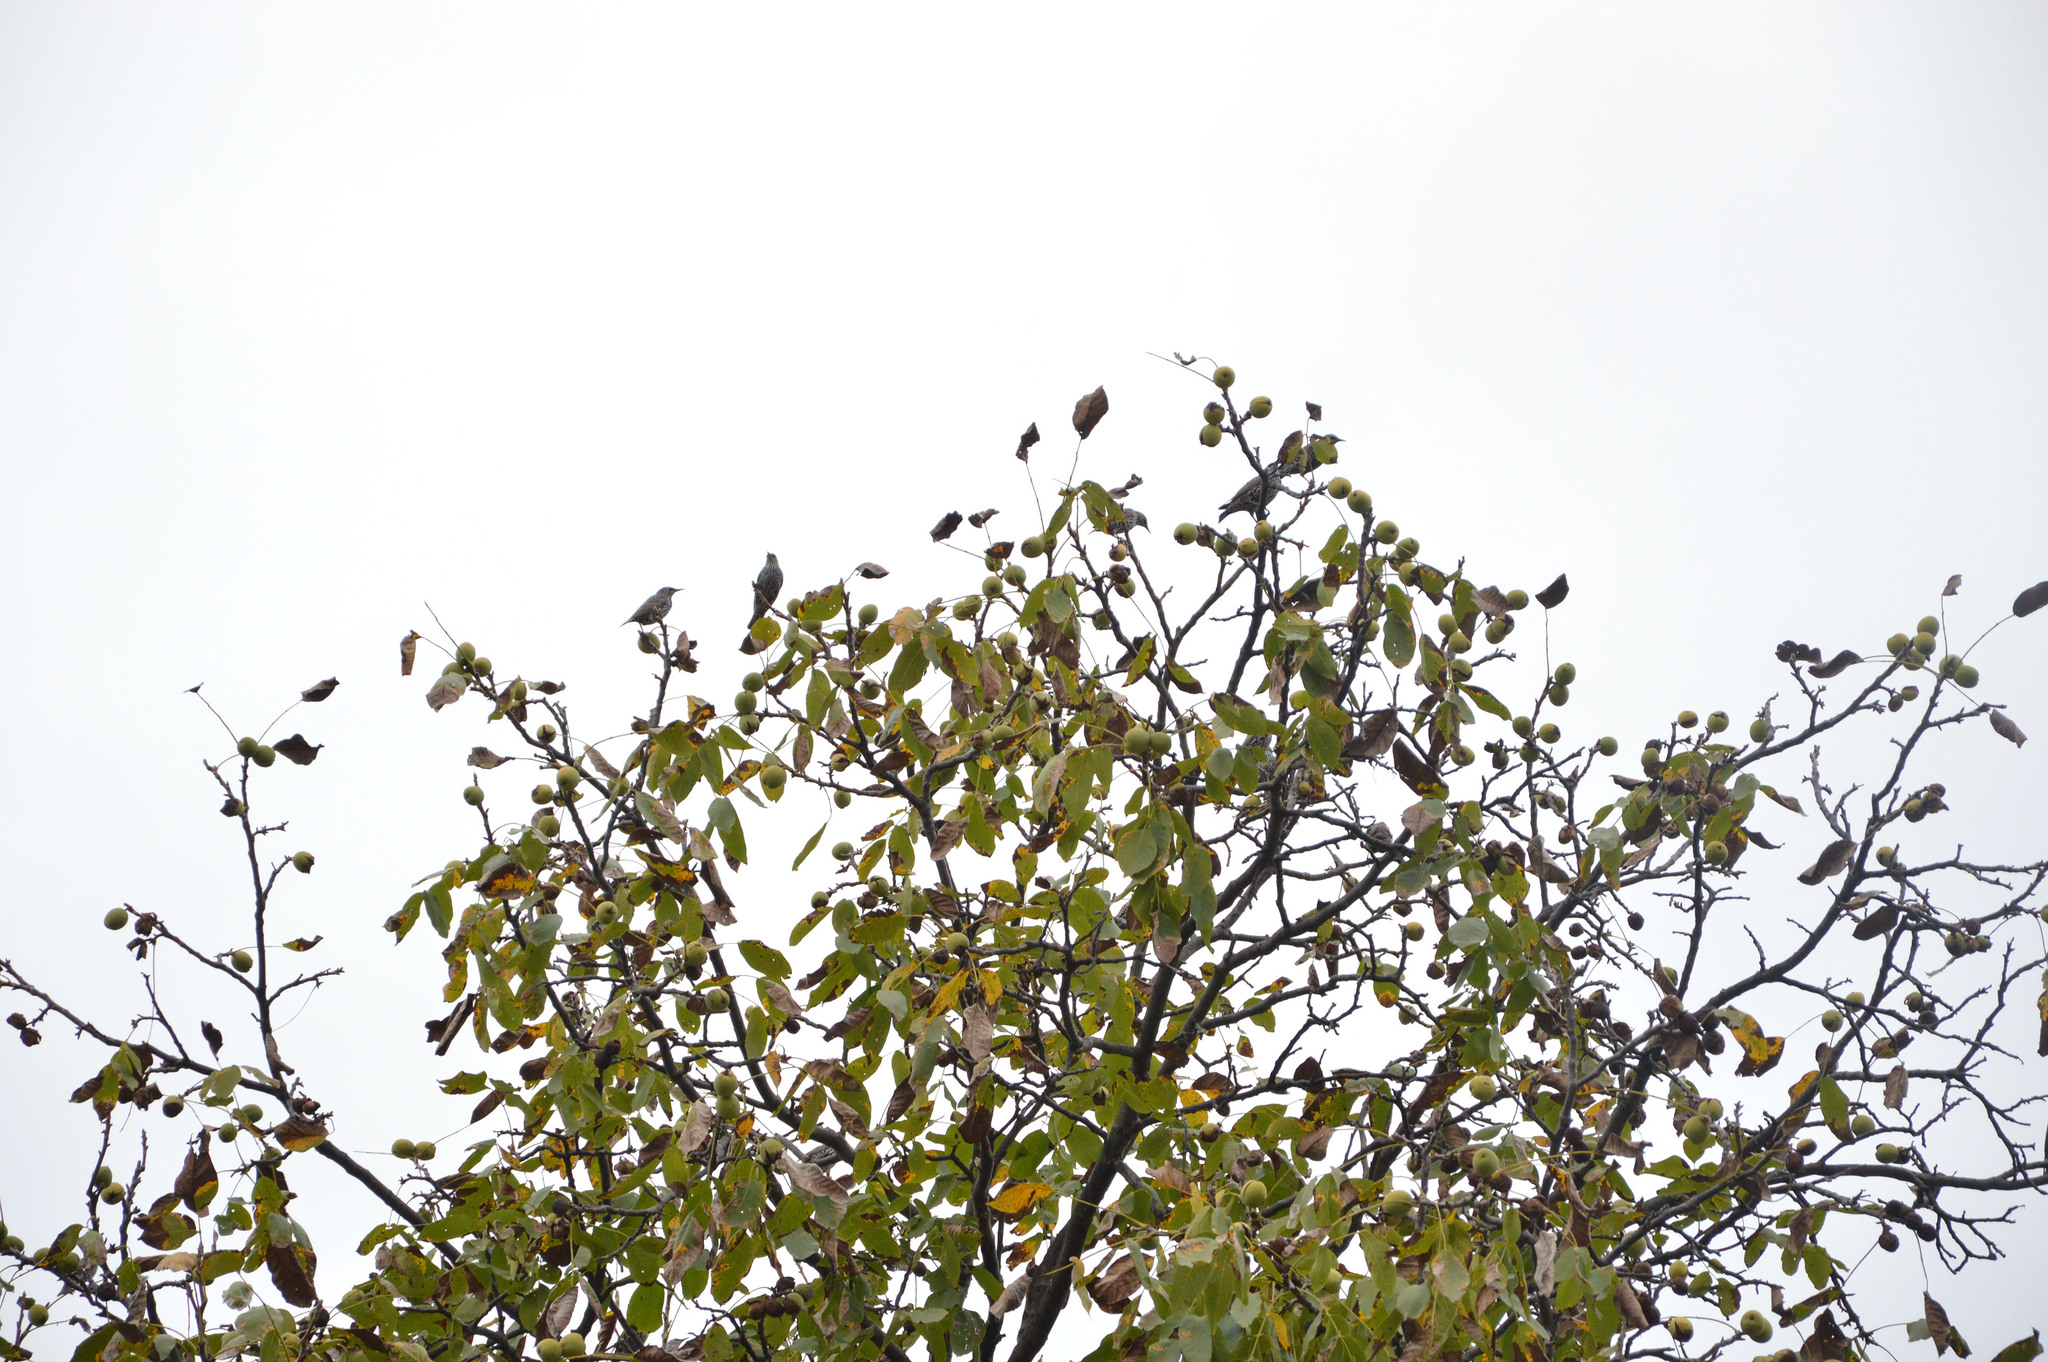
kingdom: Animalia
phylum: Chordata
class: Aves
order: Passeriformes
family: Sturnidae
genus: Sturnus
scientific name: Sturnus vulgaris
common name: Common starling
